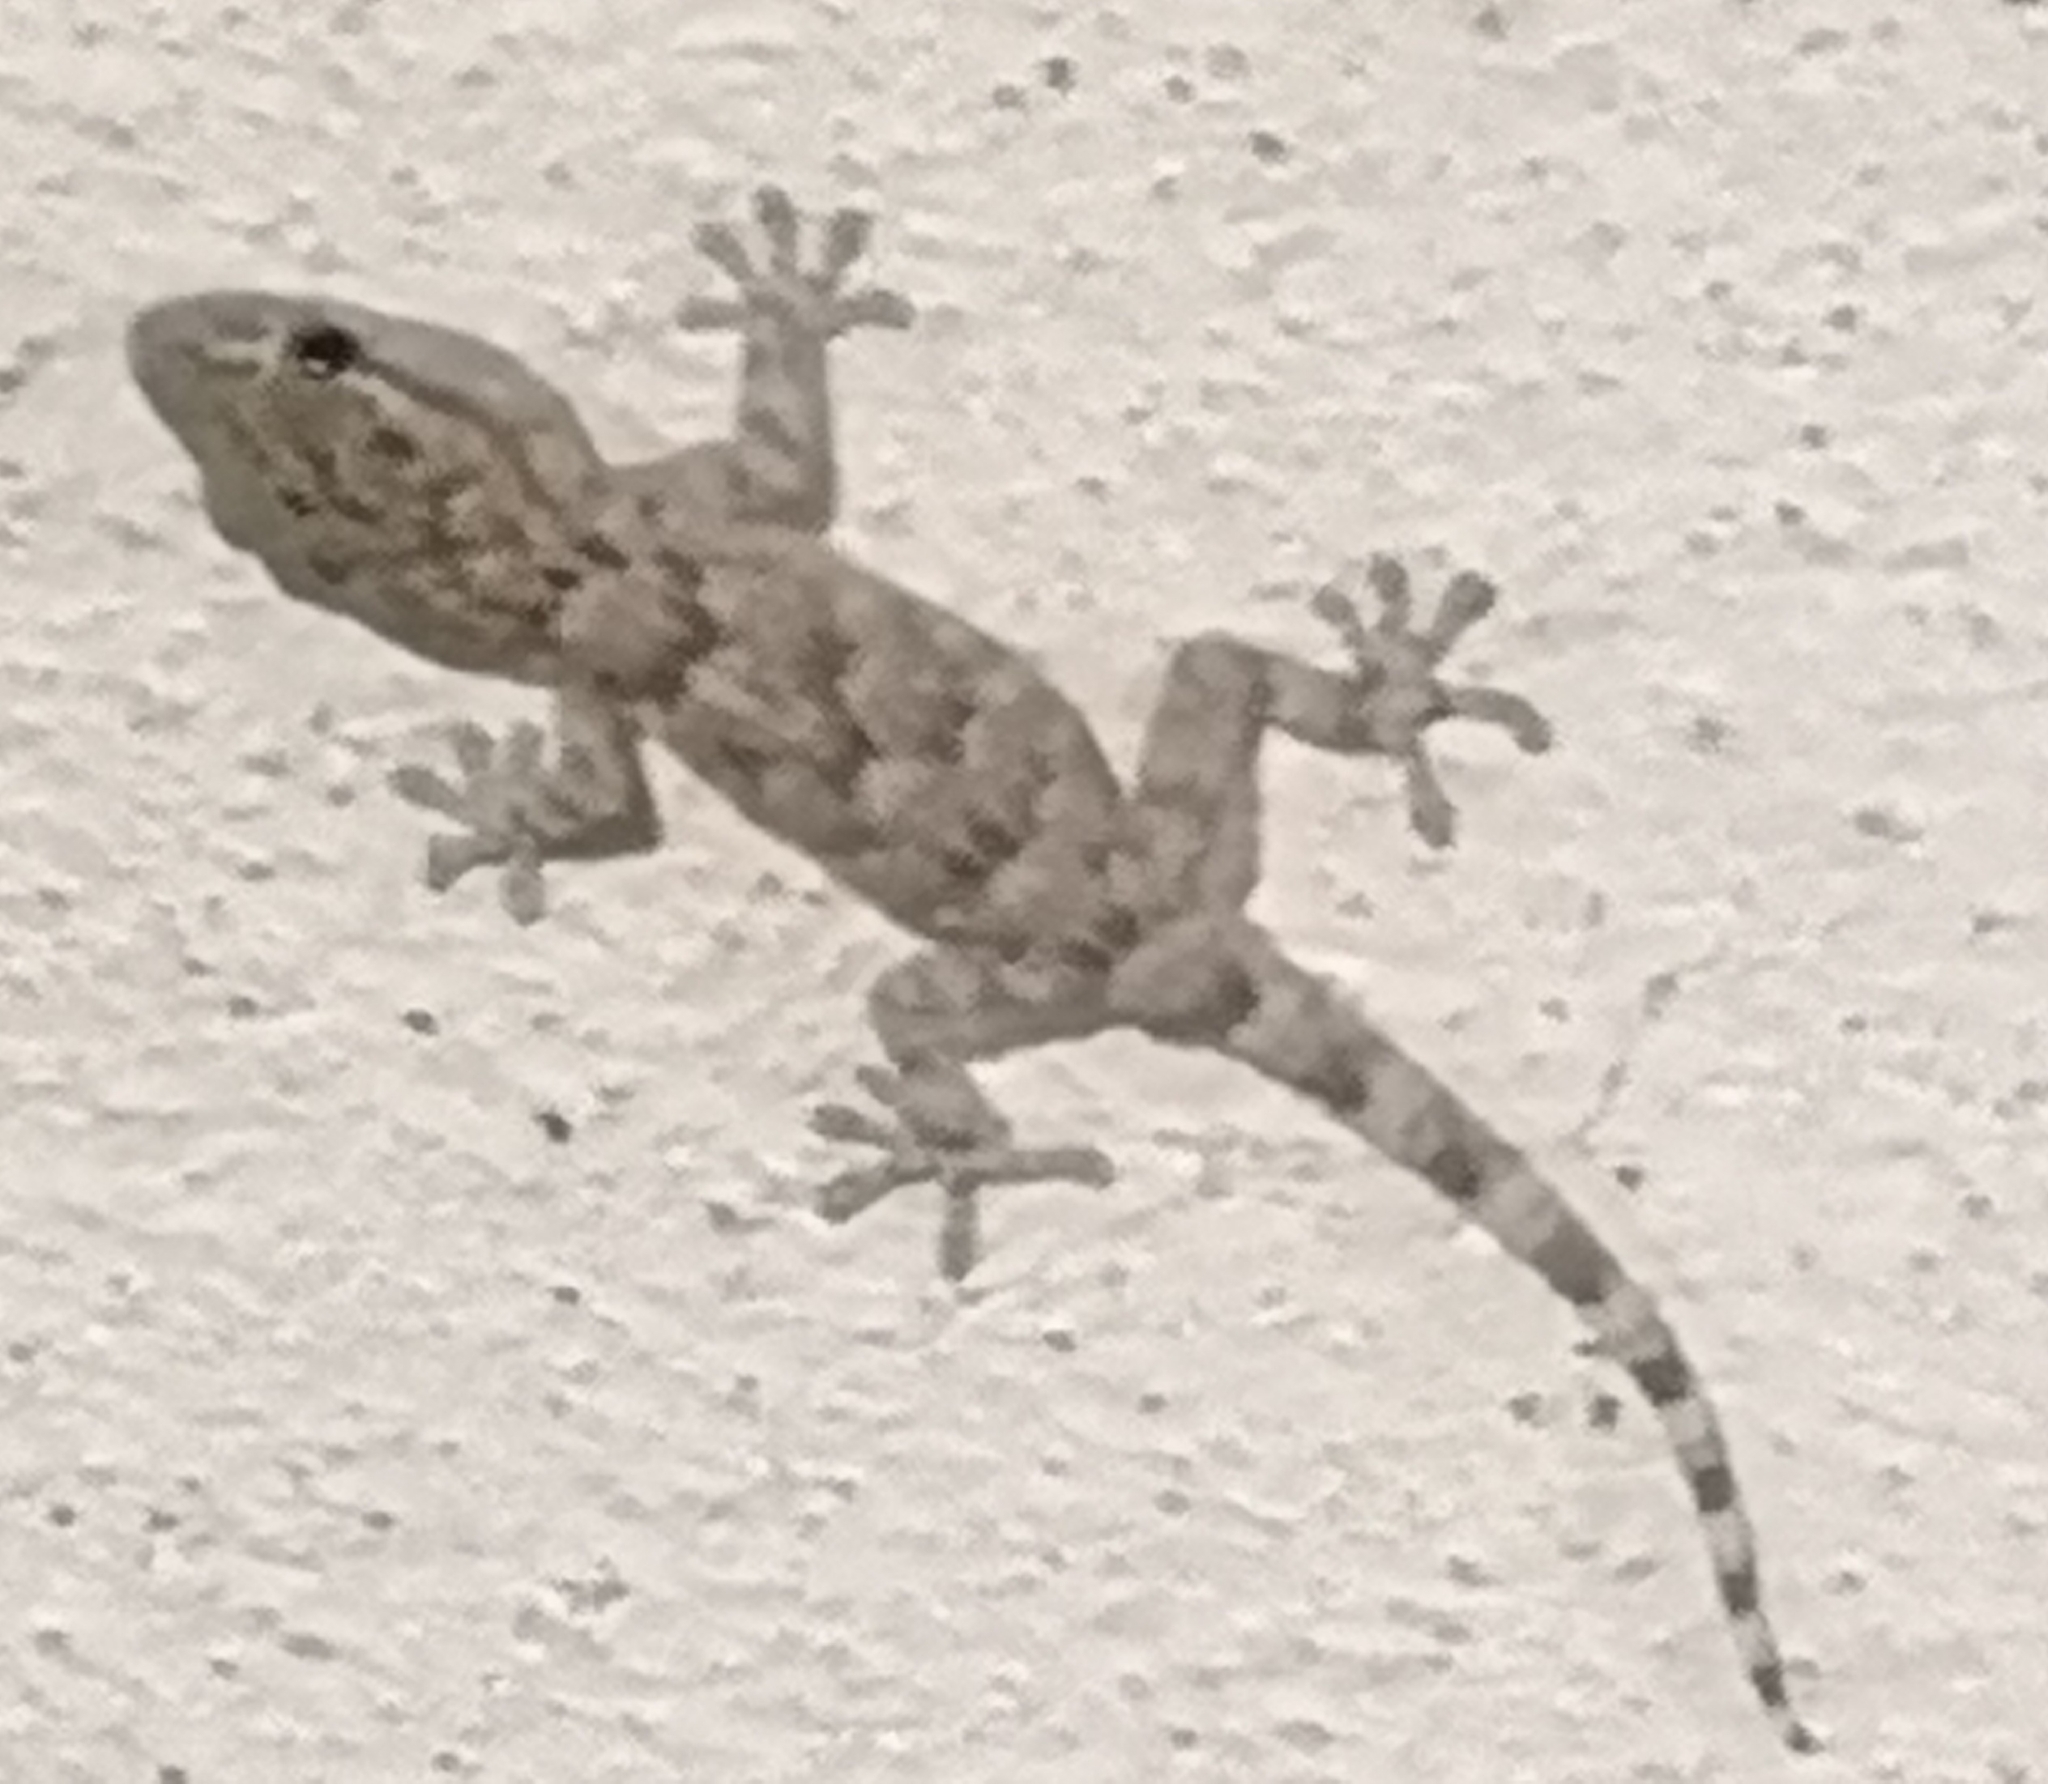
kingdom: Animalia
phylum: Chordata
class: Squamata
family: Phyllodactylidae
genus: Tarentola
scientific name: Tarentola mauritanica
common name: Moorish gecko
